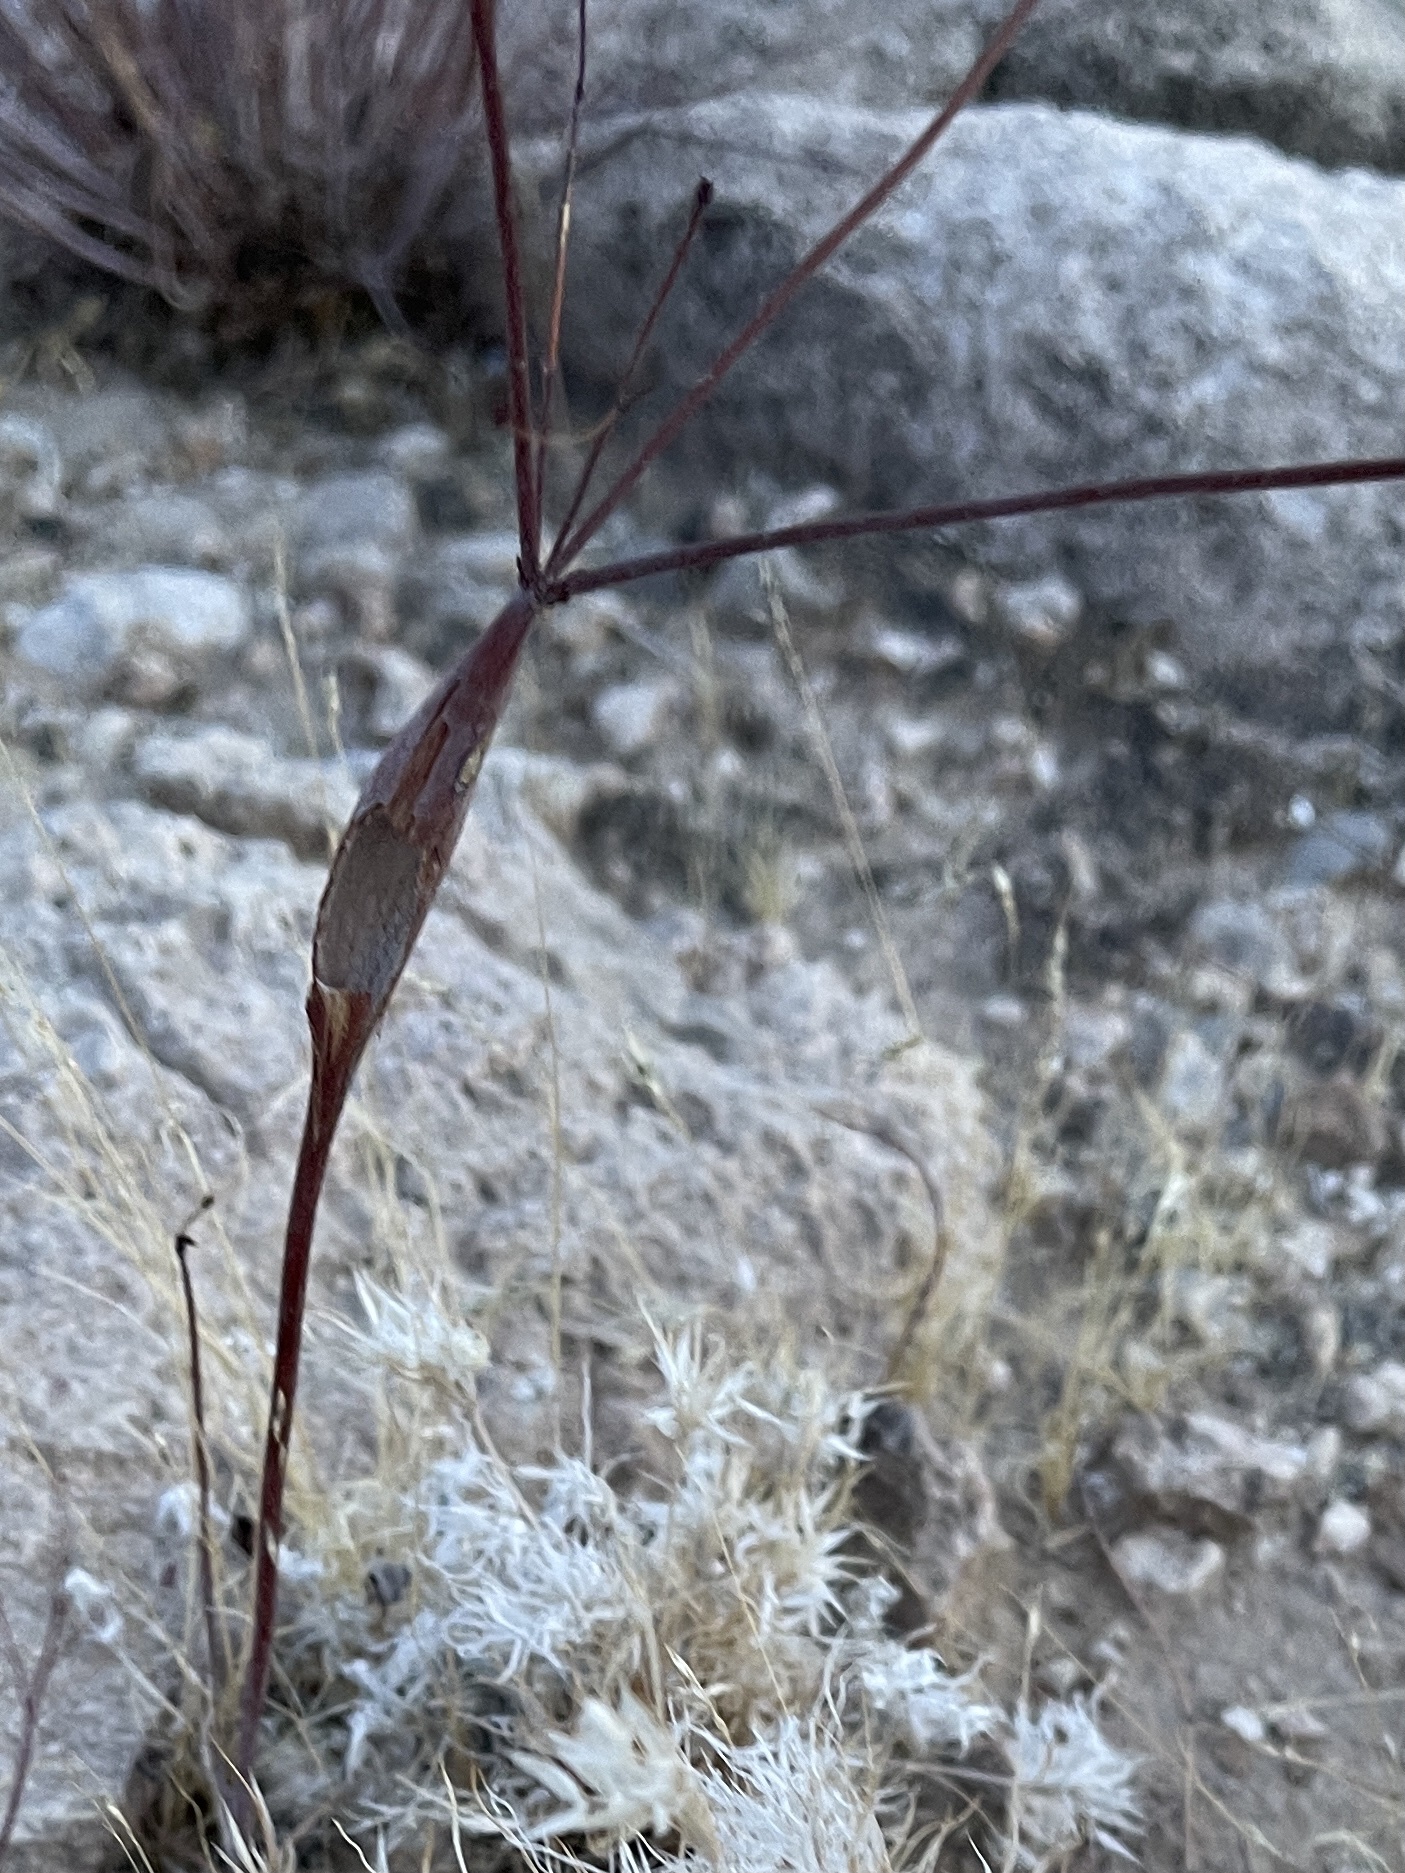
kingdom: Plantae
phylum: Tracheophyta
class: Magnoliopsida
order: Caryophyllales
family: Polygonaceae
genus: Eriogonum
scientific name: Eriogonum inflatum
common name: Desert trumpet
